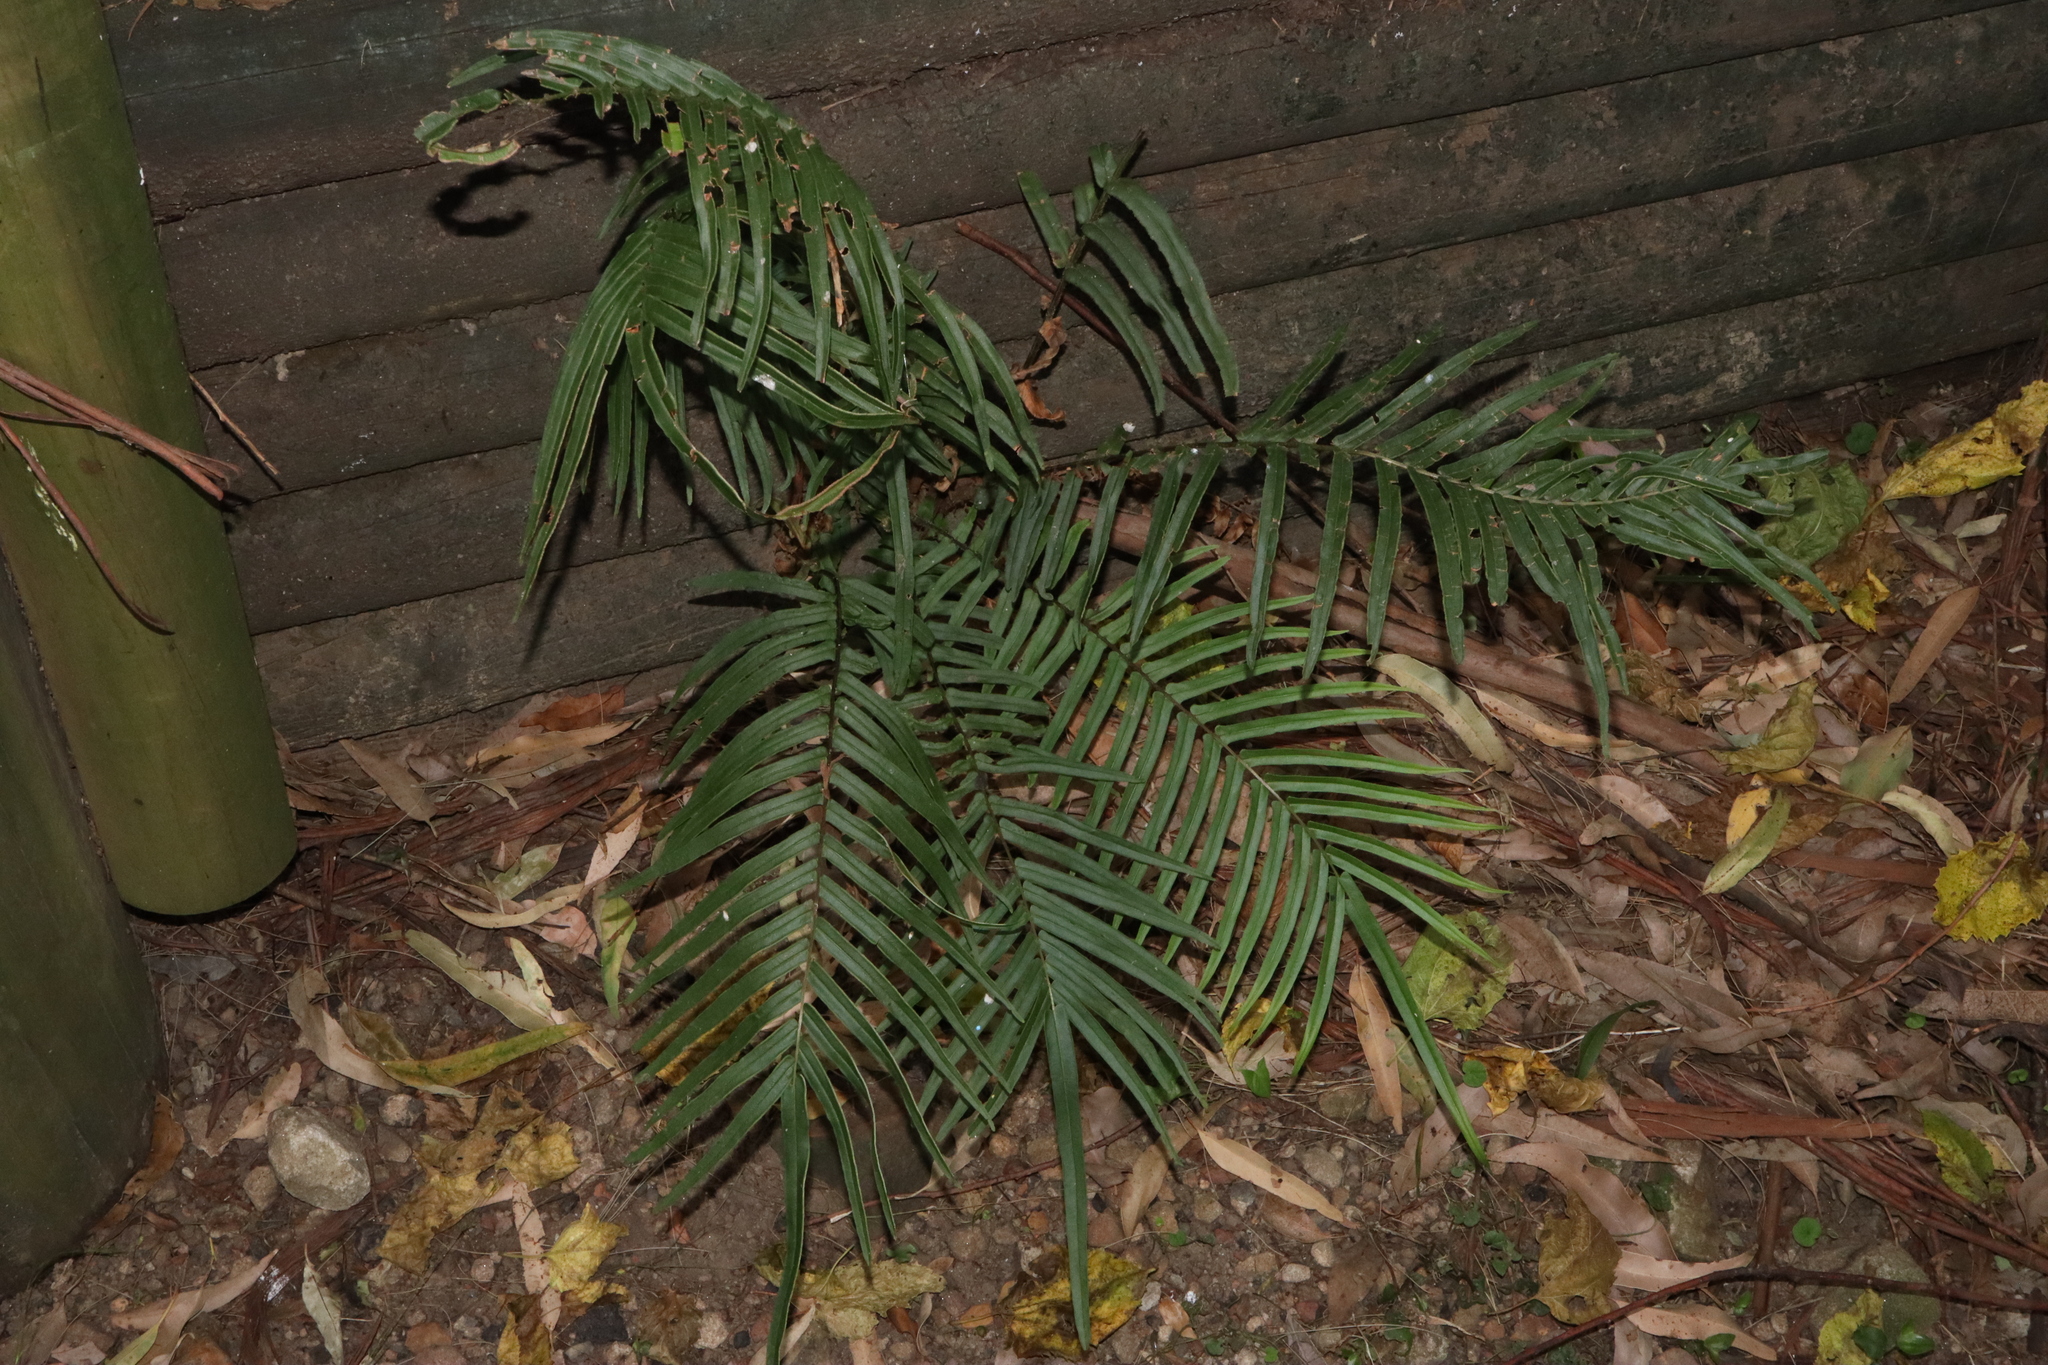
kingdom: Plantae
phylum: Tracheophyta
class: Polypodiopsida
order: Polypodiales
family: Pteridaceae
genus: Pteris
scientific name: Pteris vittata
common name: Ladder brake
